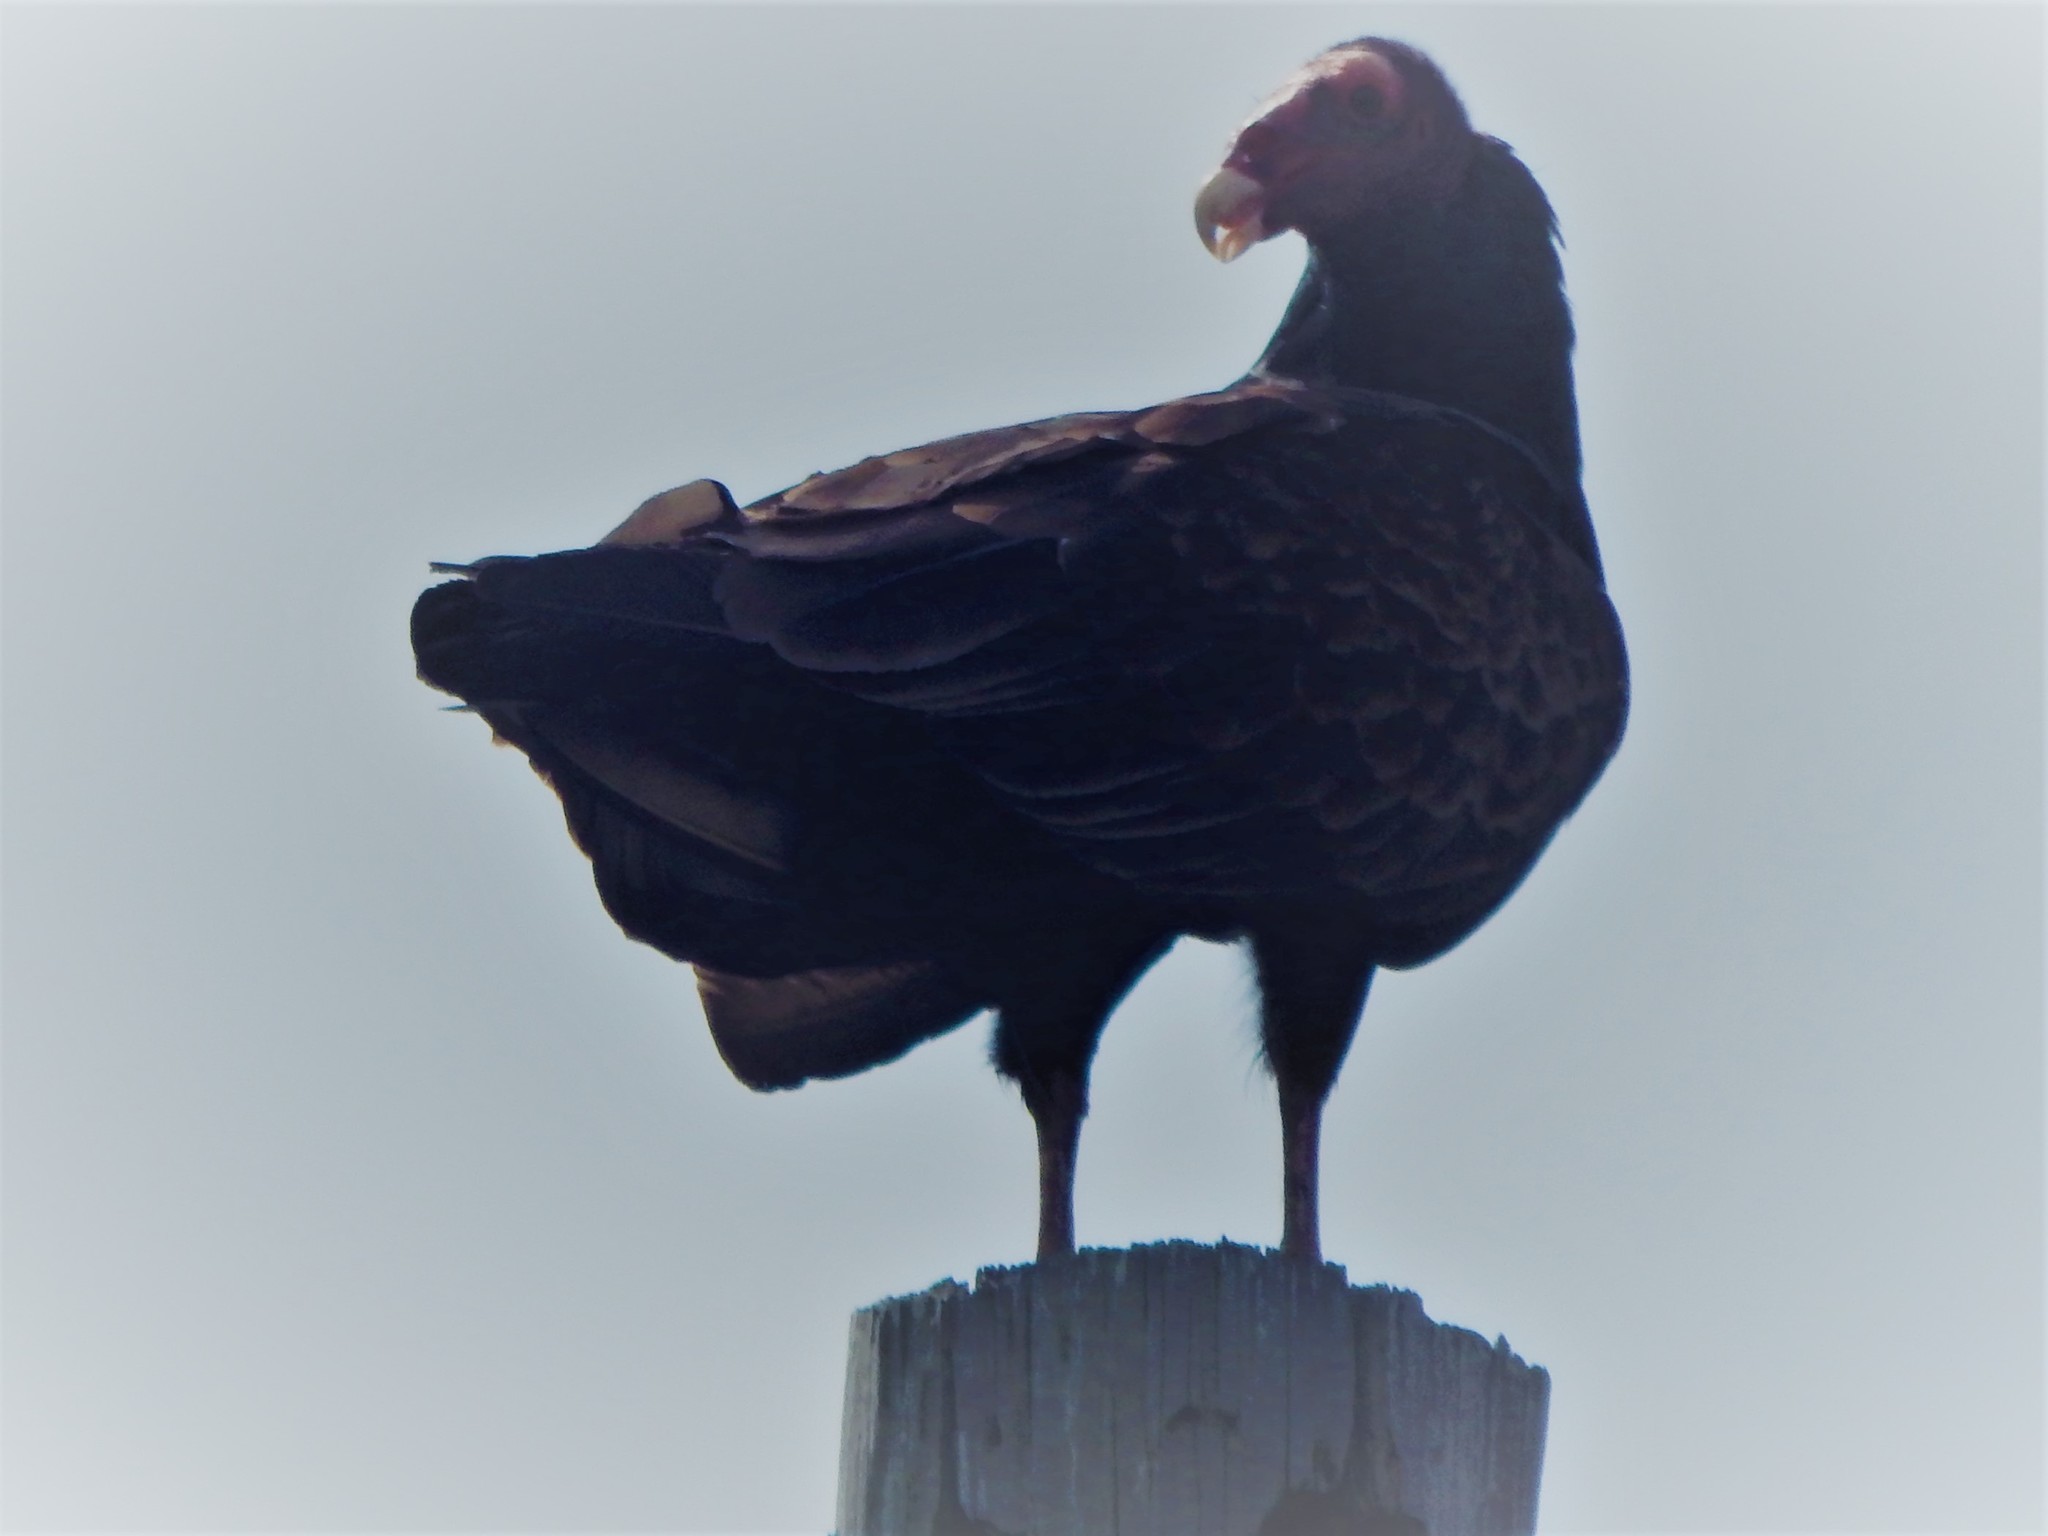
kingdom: Animalia
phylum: Chordata
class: Aves
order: Accipitriformes
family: Cathartidae
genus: Cathartes
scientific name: Cathartes aura
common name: Turkey vulture
